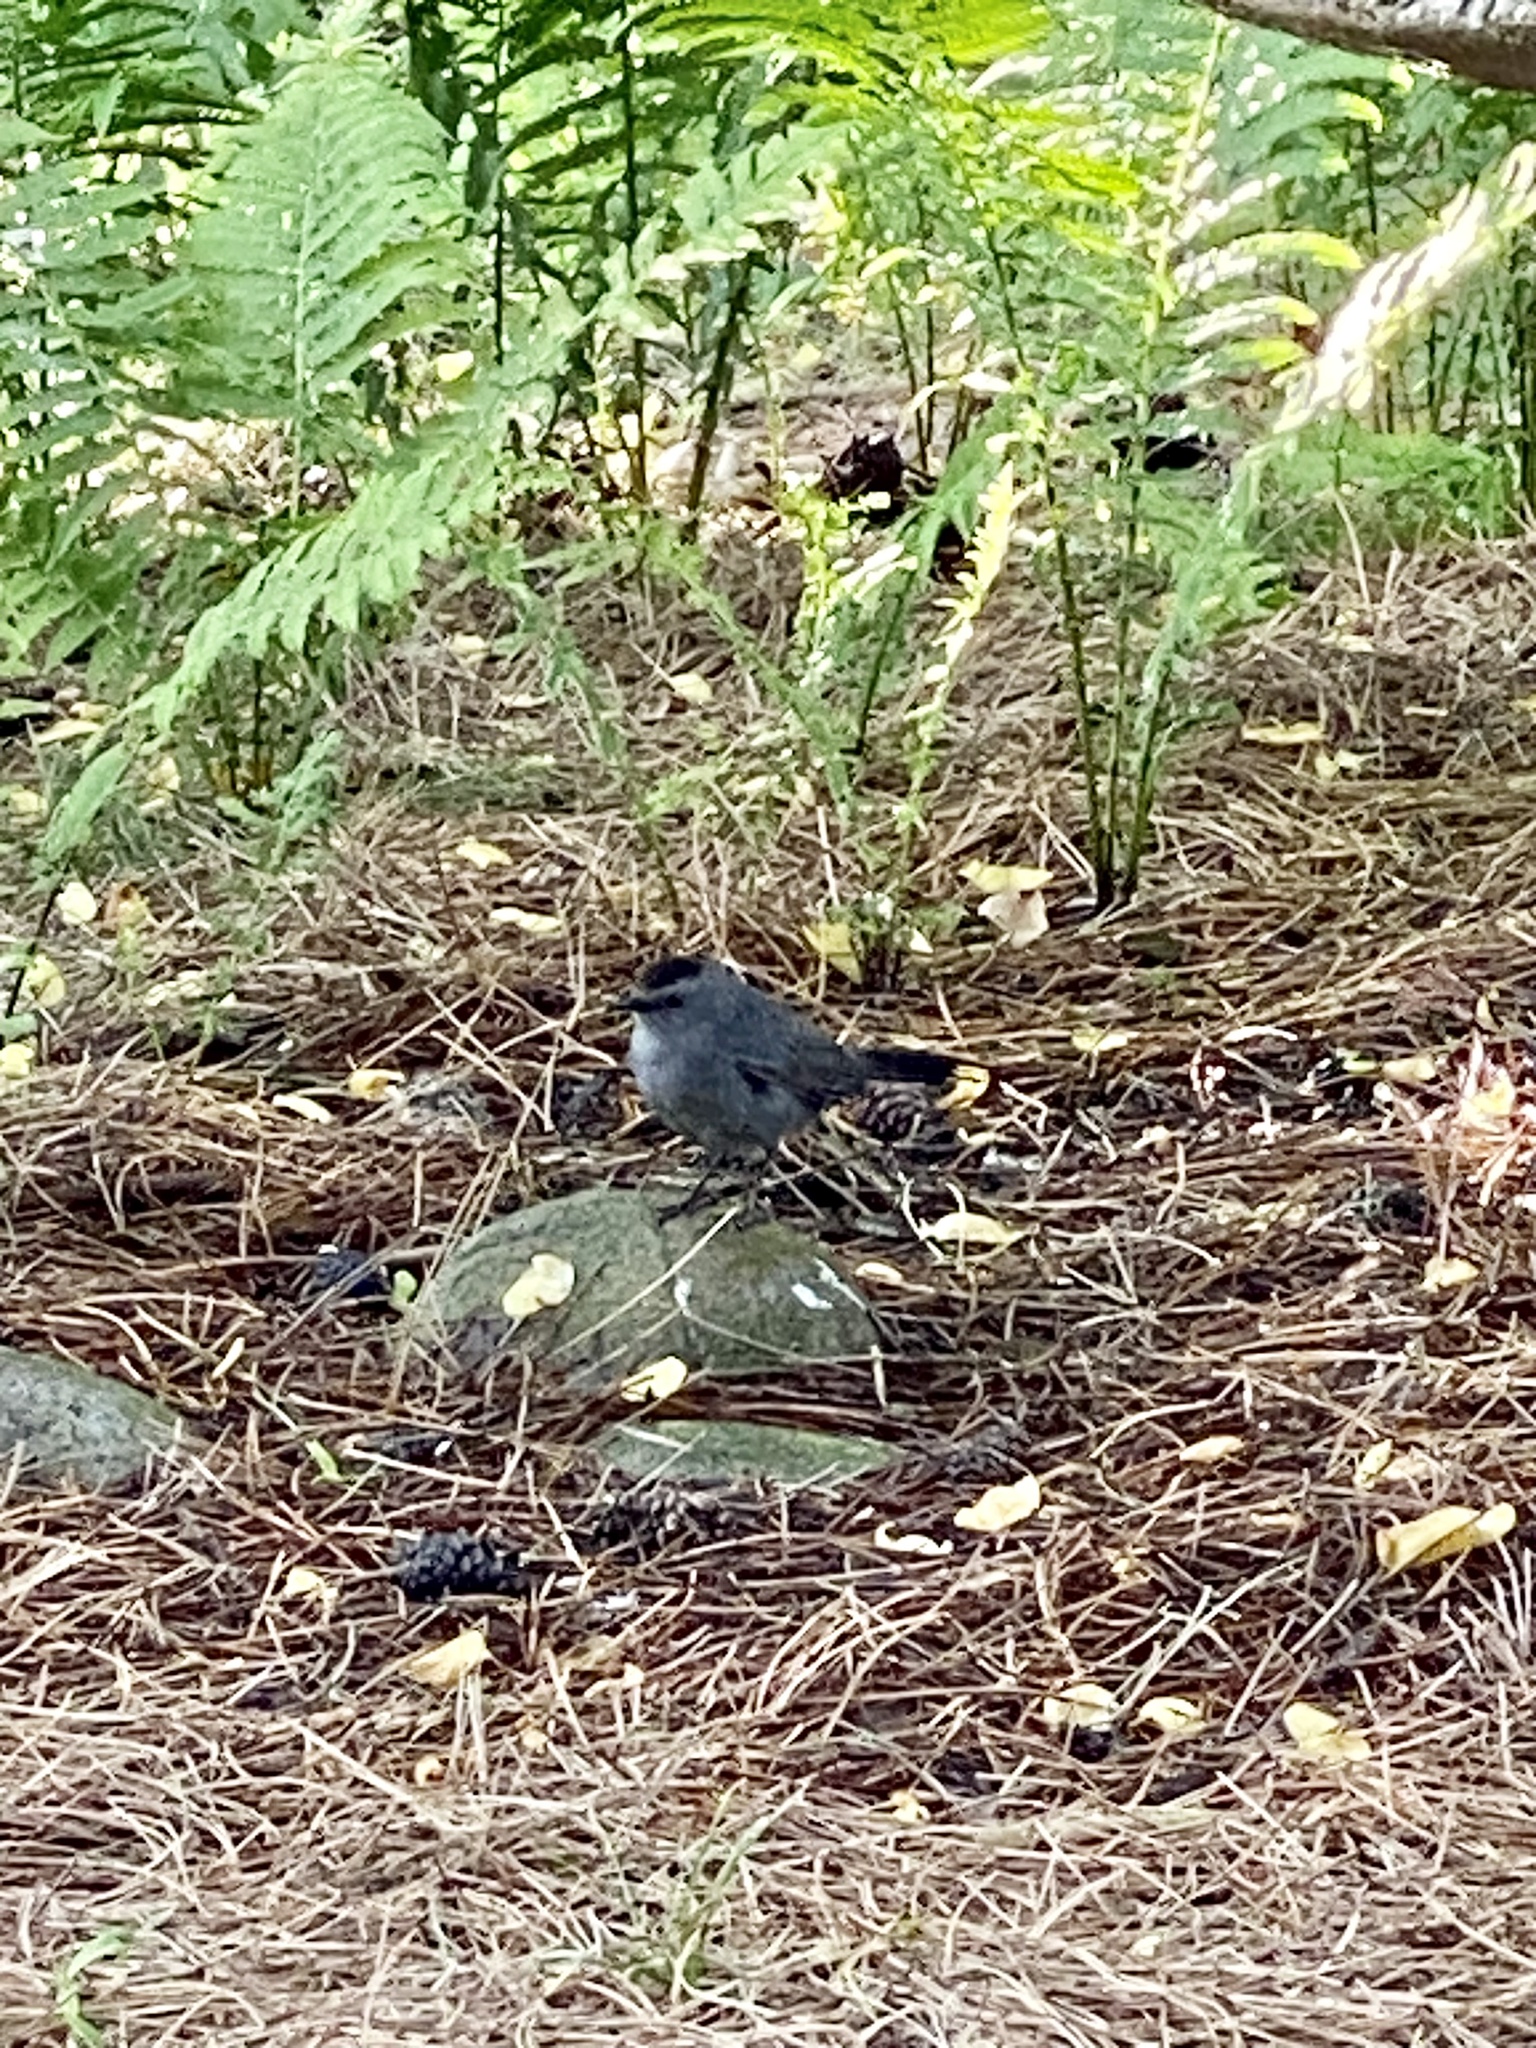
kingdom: Animalia
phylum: Chordata
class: Aves
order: Passeriformes
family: Mimidae
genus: Dumetella
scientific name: Dumetella carolinensis
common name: Gray catbird
